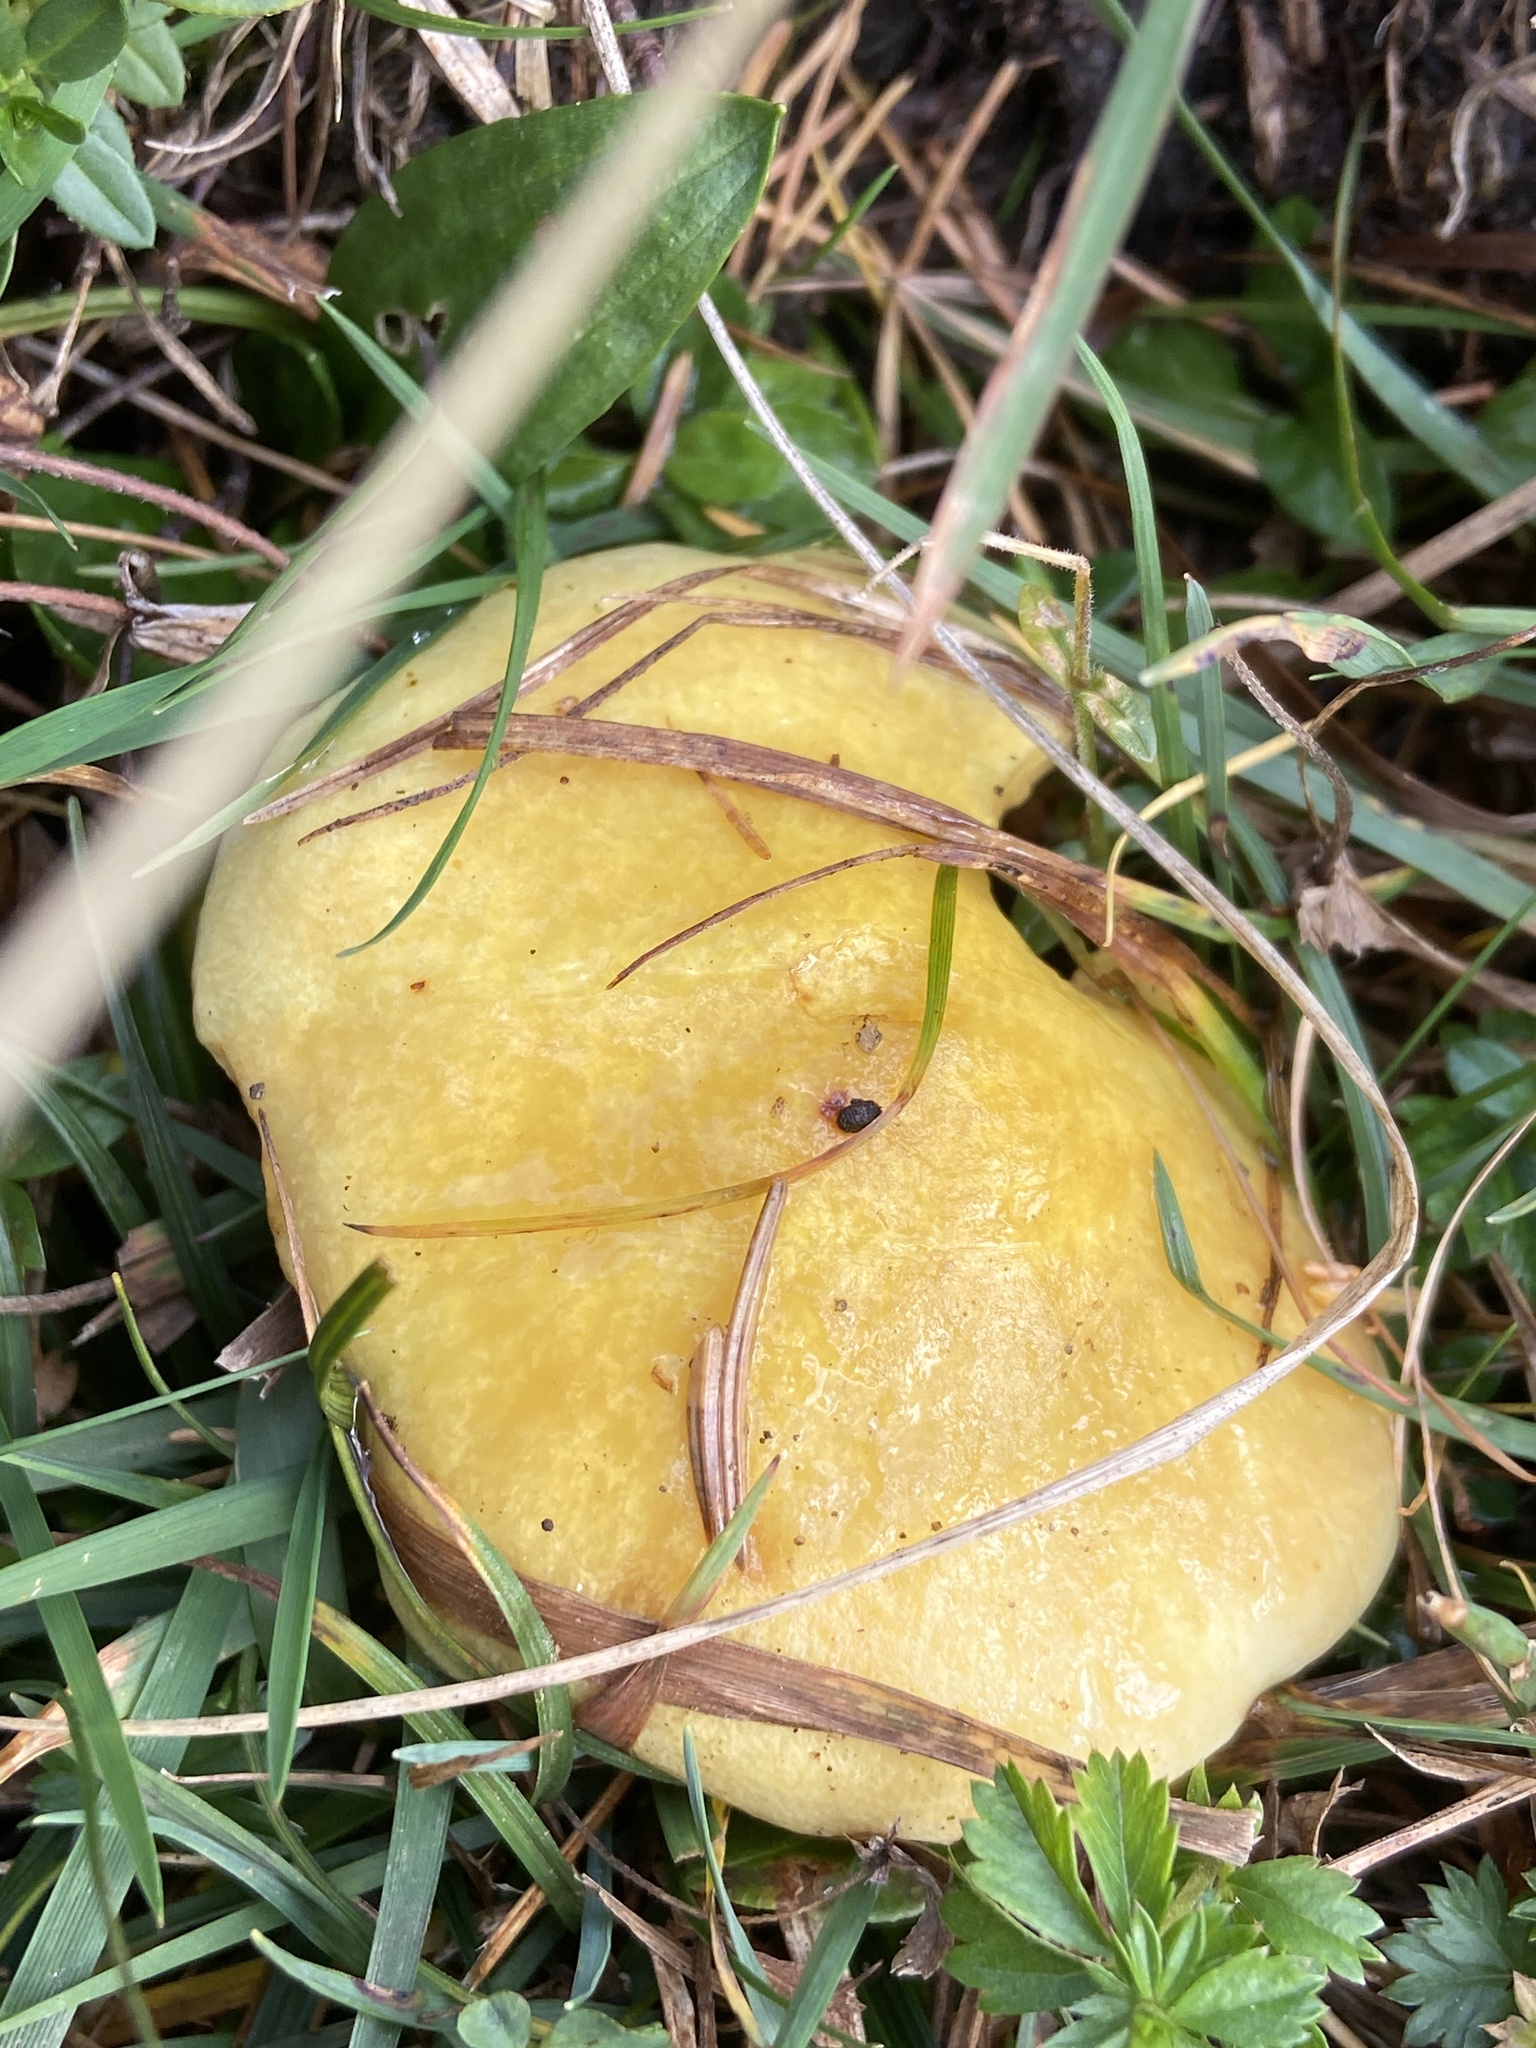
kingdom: Fungi
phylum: Basidiomycota
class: Agaricomycetes
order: Boletales
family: Suillaceae
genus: Suillus
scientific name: Suillus grevillei
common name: Larch bolete
